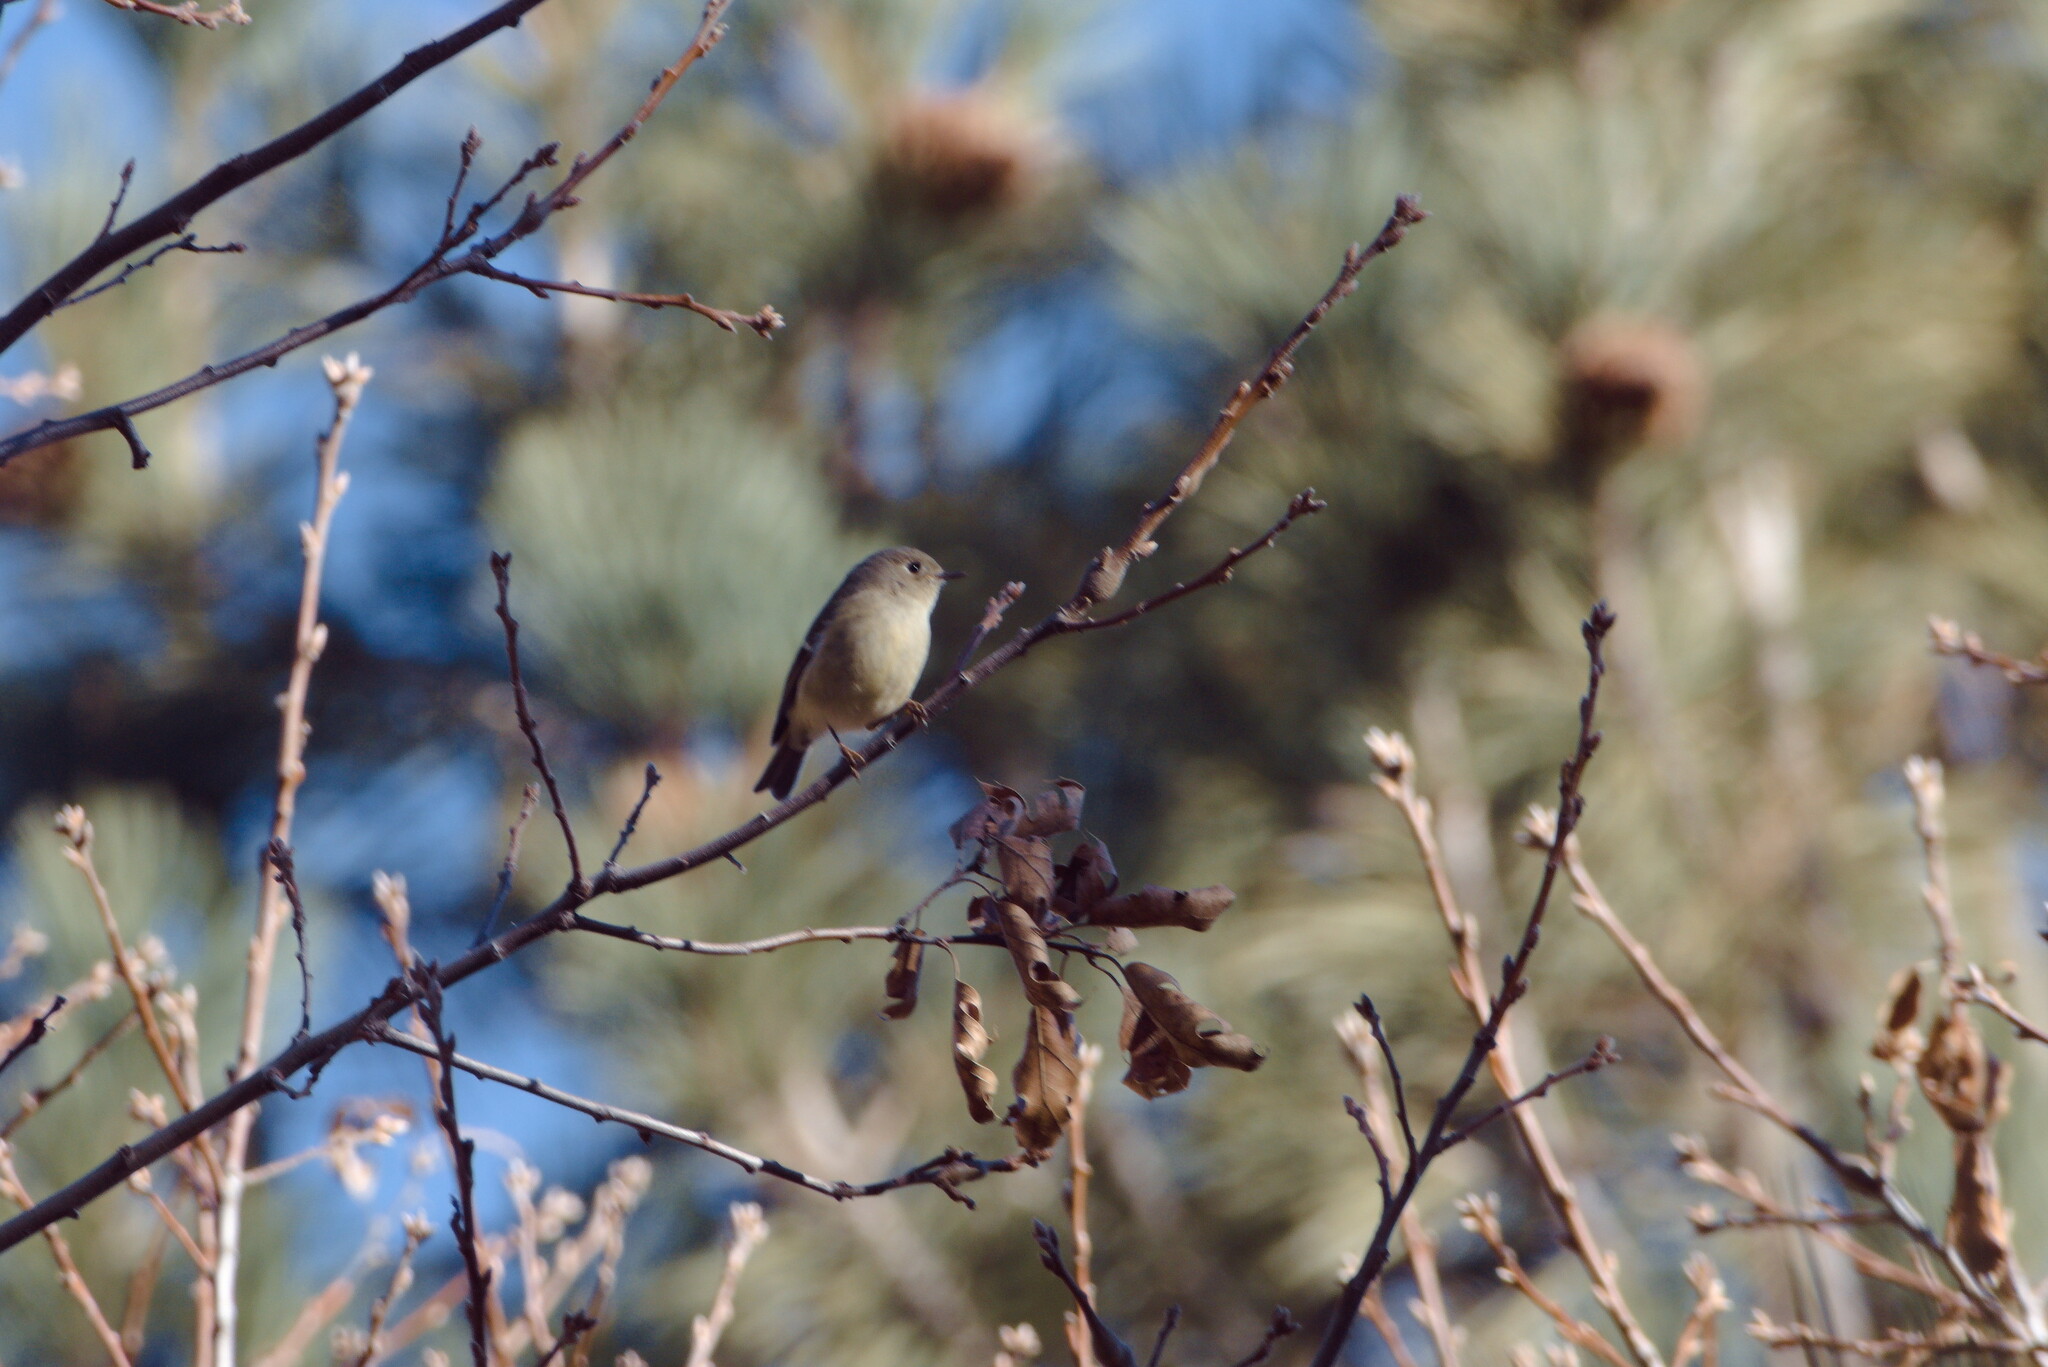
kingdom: Animalia
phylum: Chordata
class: Aves
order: Passeriformes
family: Regulidae
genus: Regulus
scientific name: Regulus calendula
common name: Ruby-crowned kinglet
